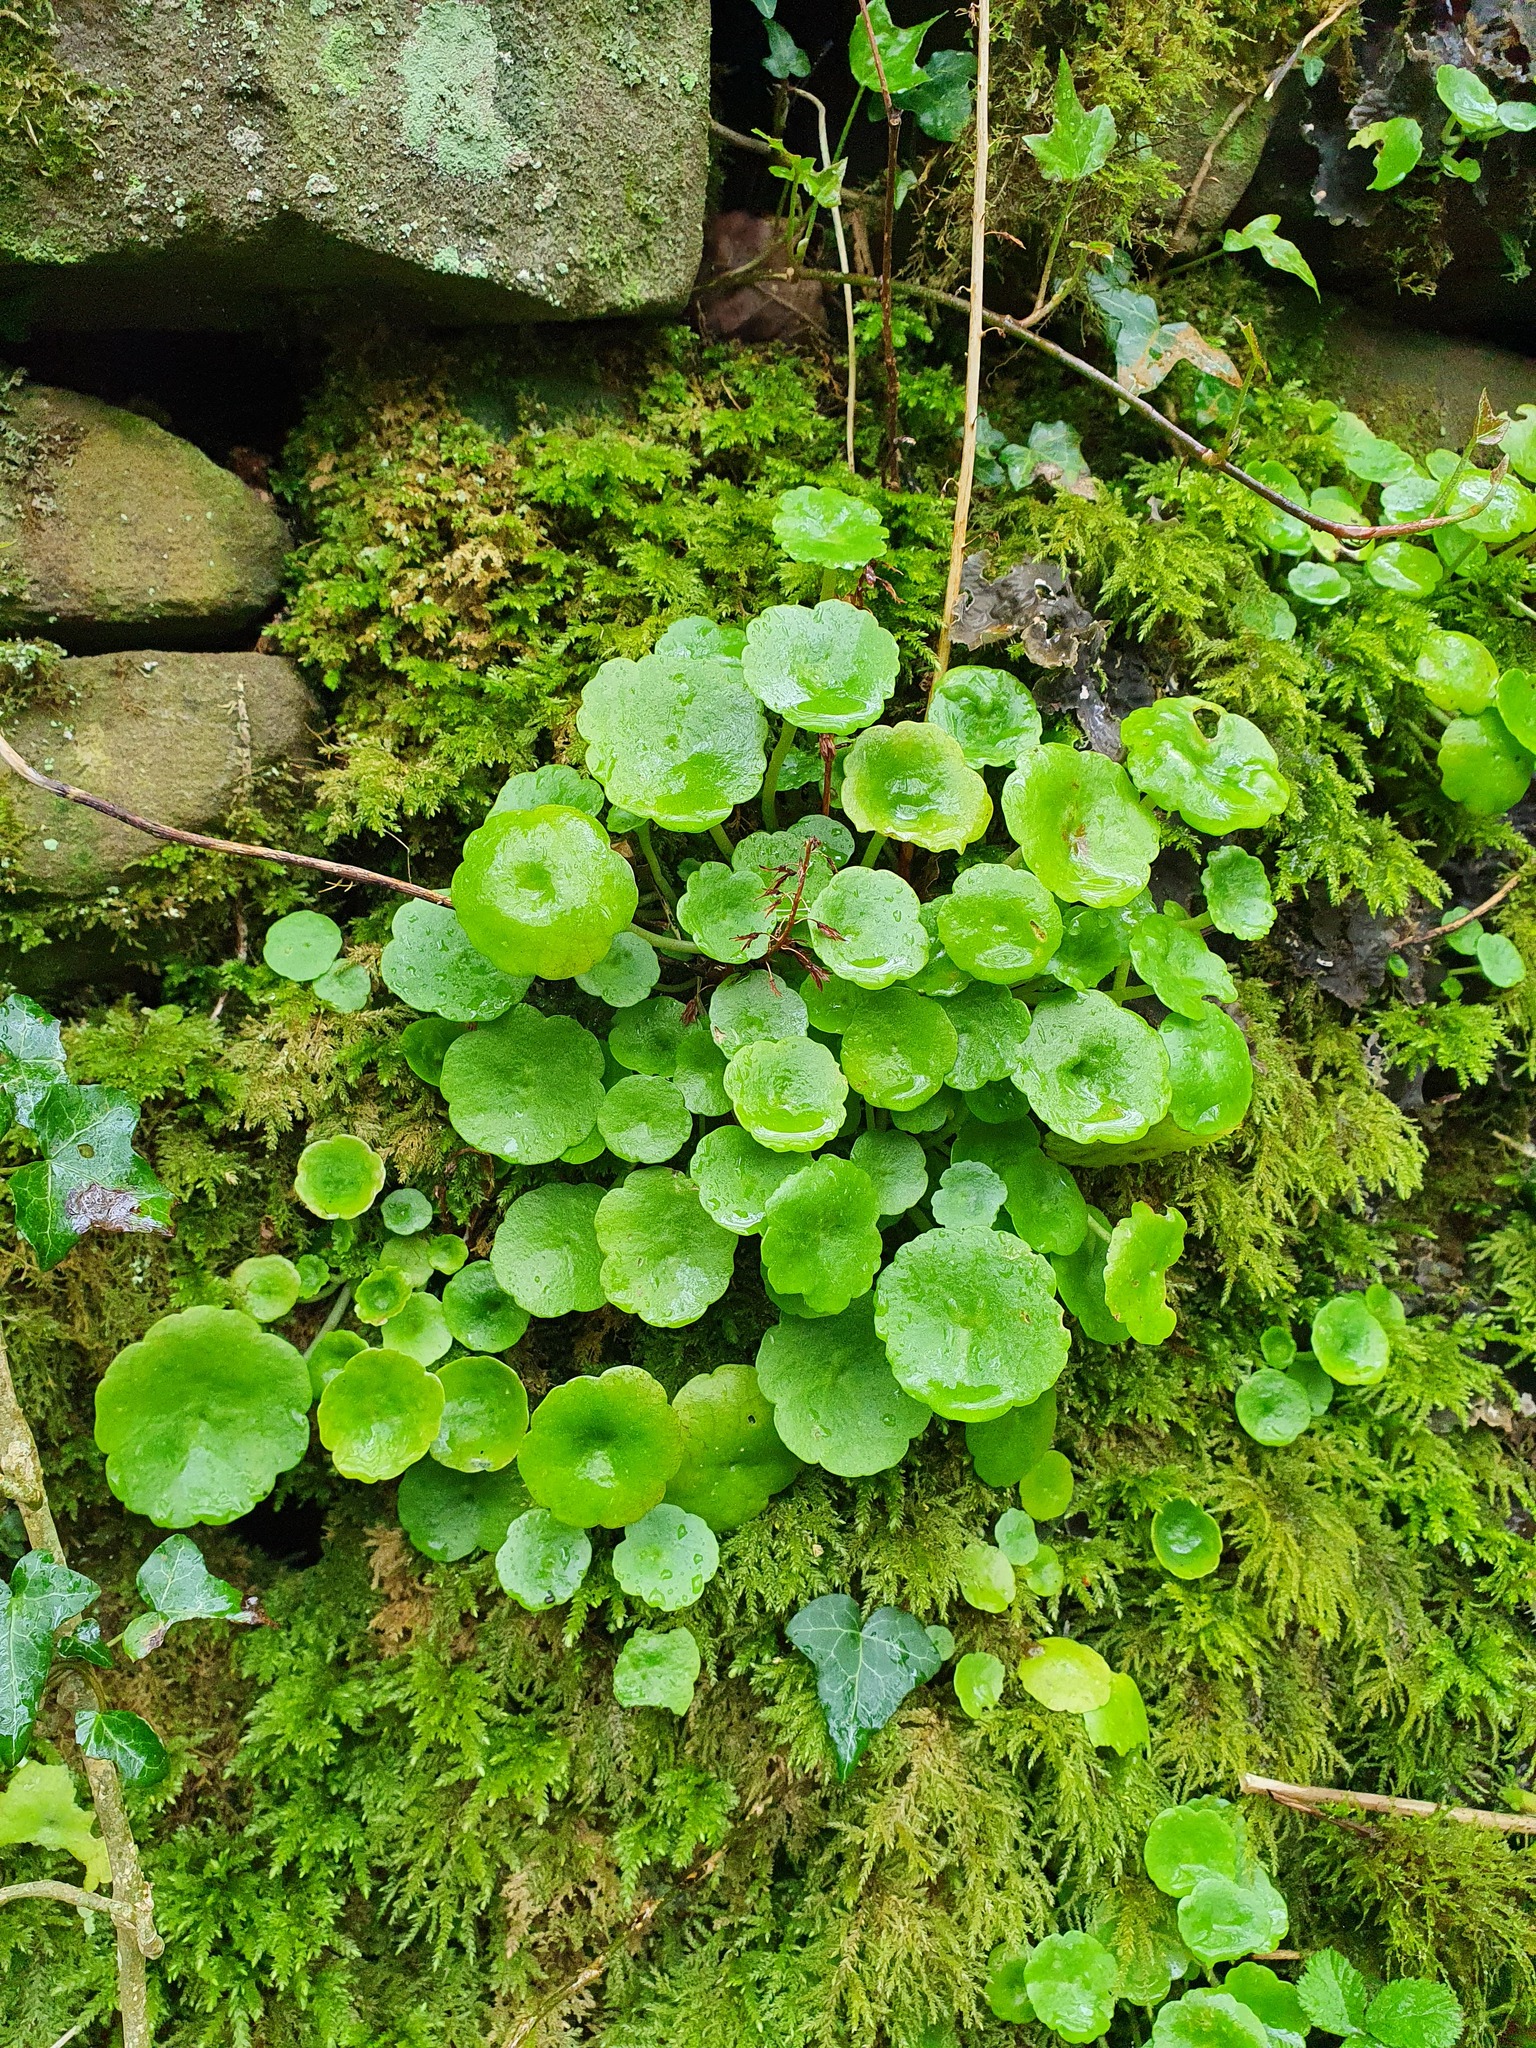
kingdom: Plantae
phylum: Tracheophyta
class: Magnoliopsida
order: Saxifragales
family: Crassulaceae
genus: Umbilicus
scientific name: Umbilicus rupestris
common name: Navelwort
